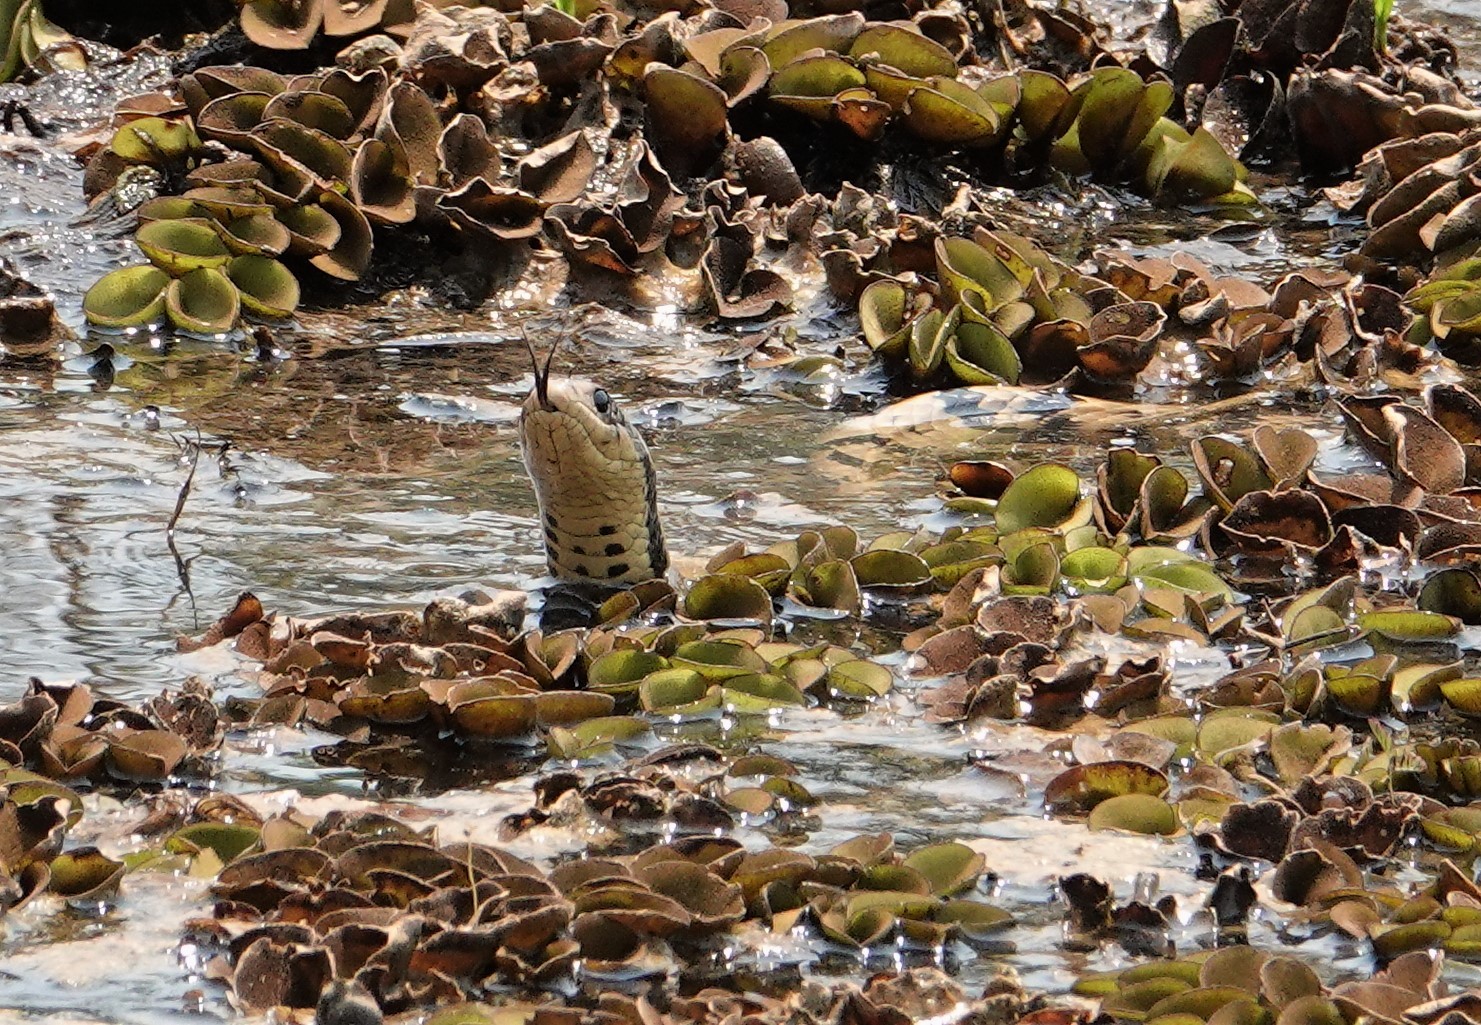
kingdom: Animalia
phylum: Chordata
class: Squamata
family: Colubridae
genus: Hydrodynastes
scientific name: Hydrodynastes gigas
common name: False water cobra
